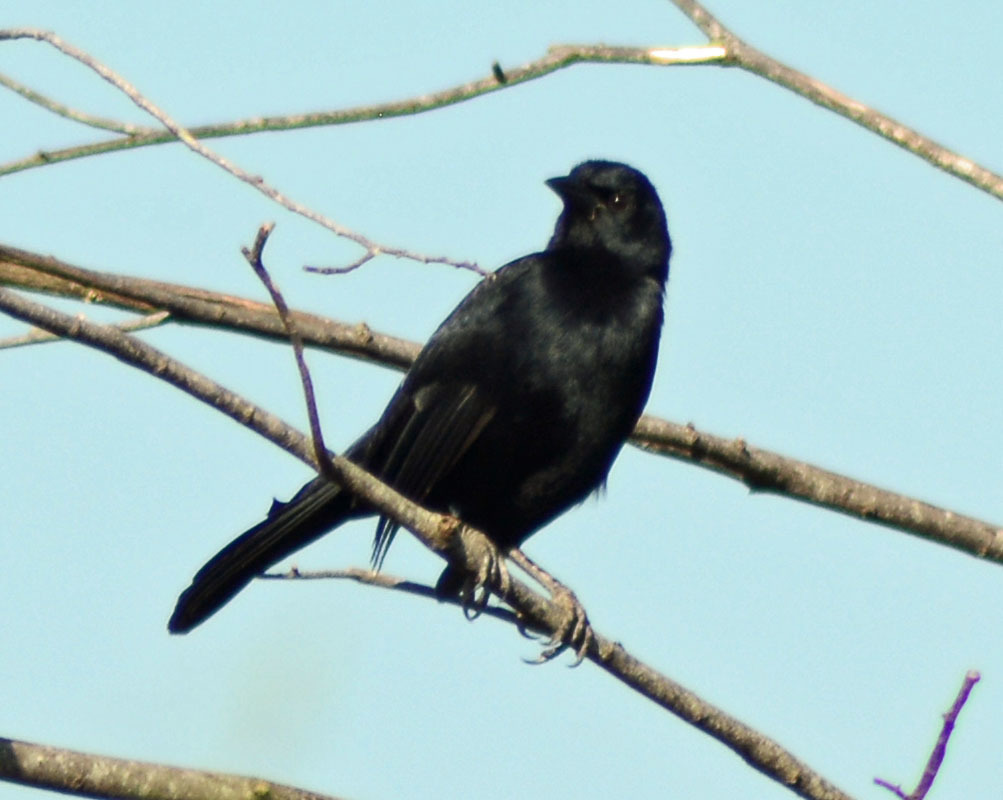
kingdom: Animalia
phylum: Chordata
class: Aves
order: Passeriformes
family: Icteridae
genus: Dives
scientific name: Dives dives
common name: Melodious blackbird
